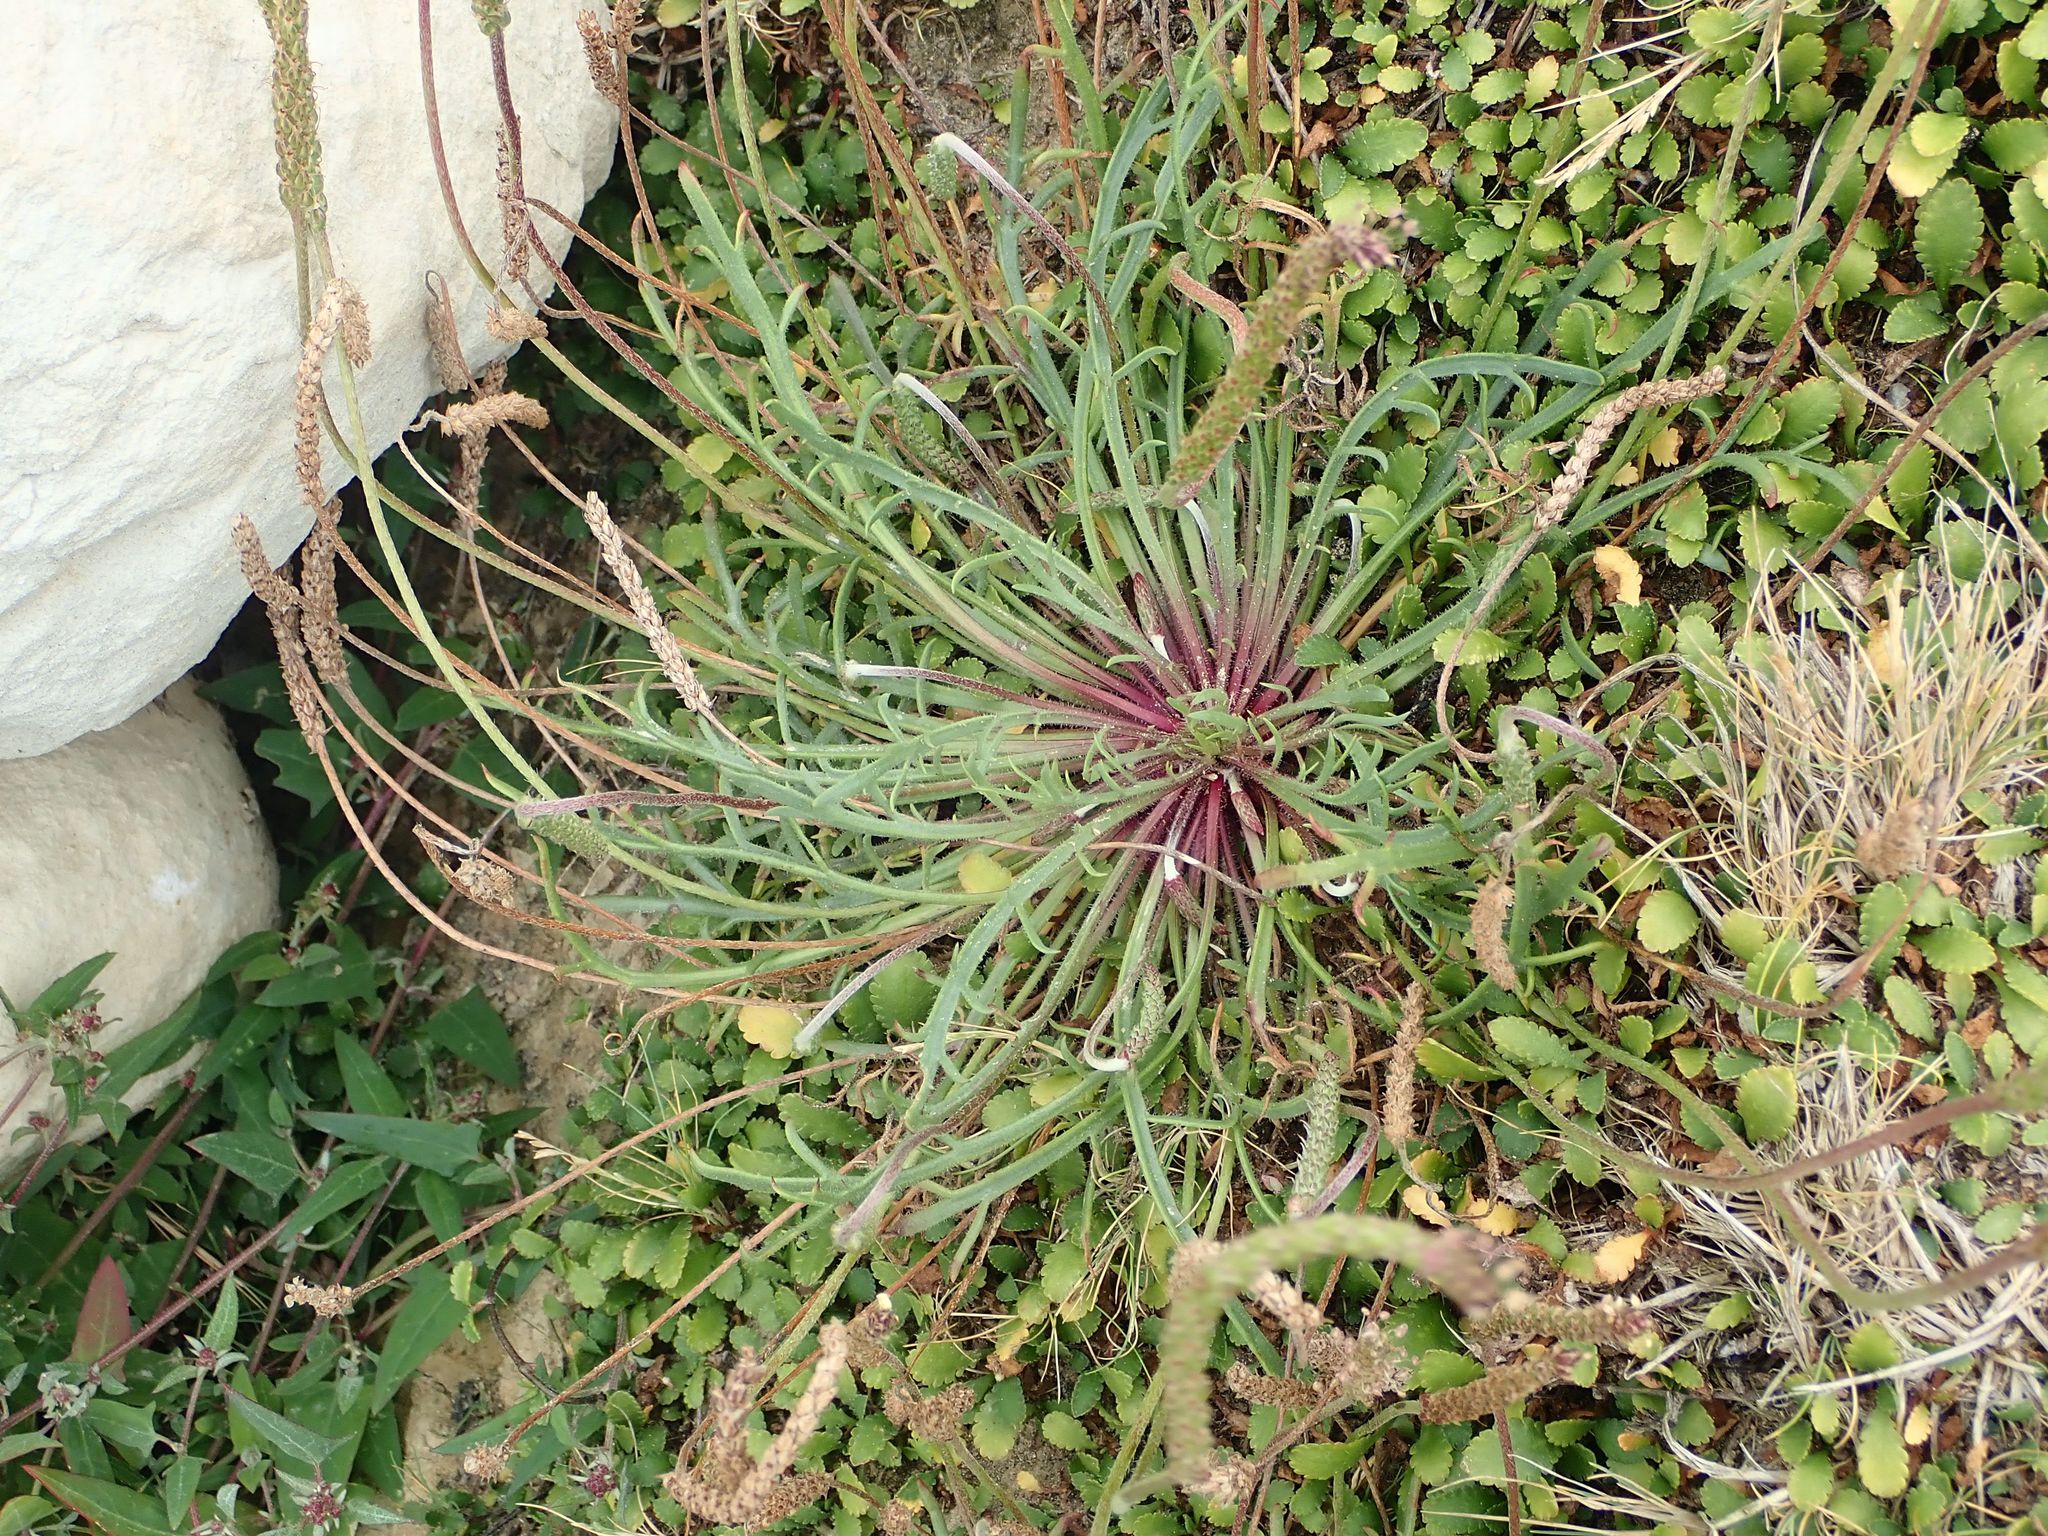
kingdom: Plantae
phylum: Tracheophyta
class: Magnoliopsida
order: Lamiales
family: Plantaginaceae
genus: Plantago
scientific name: Plantago coronopus
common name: Buck's-horn plantain
